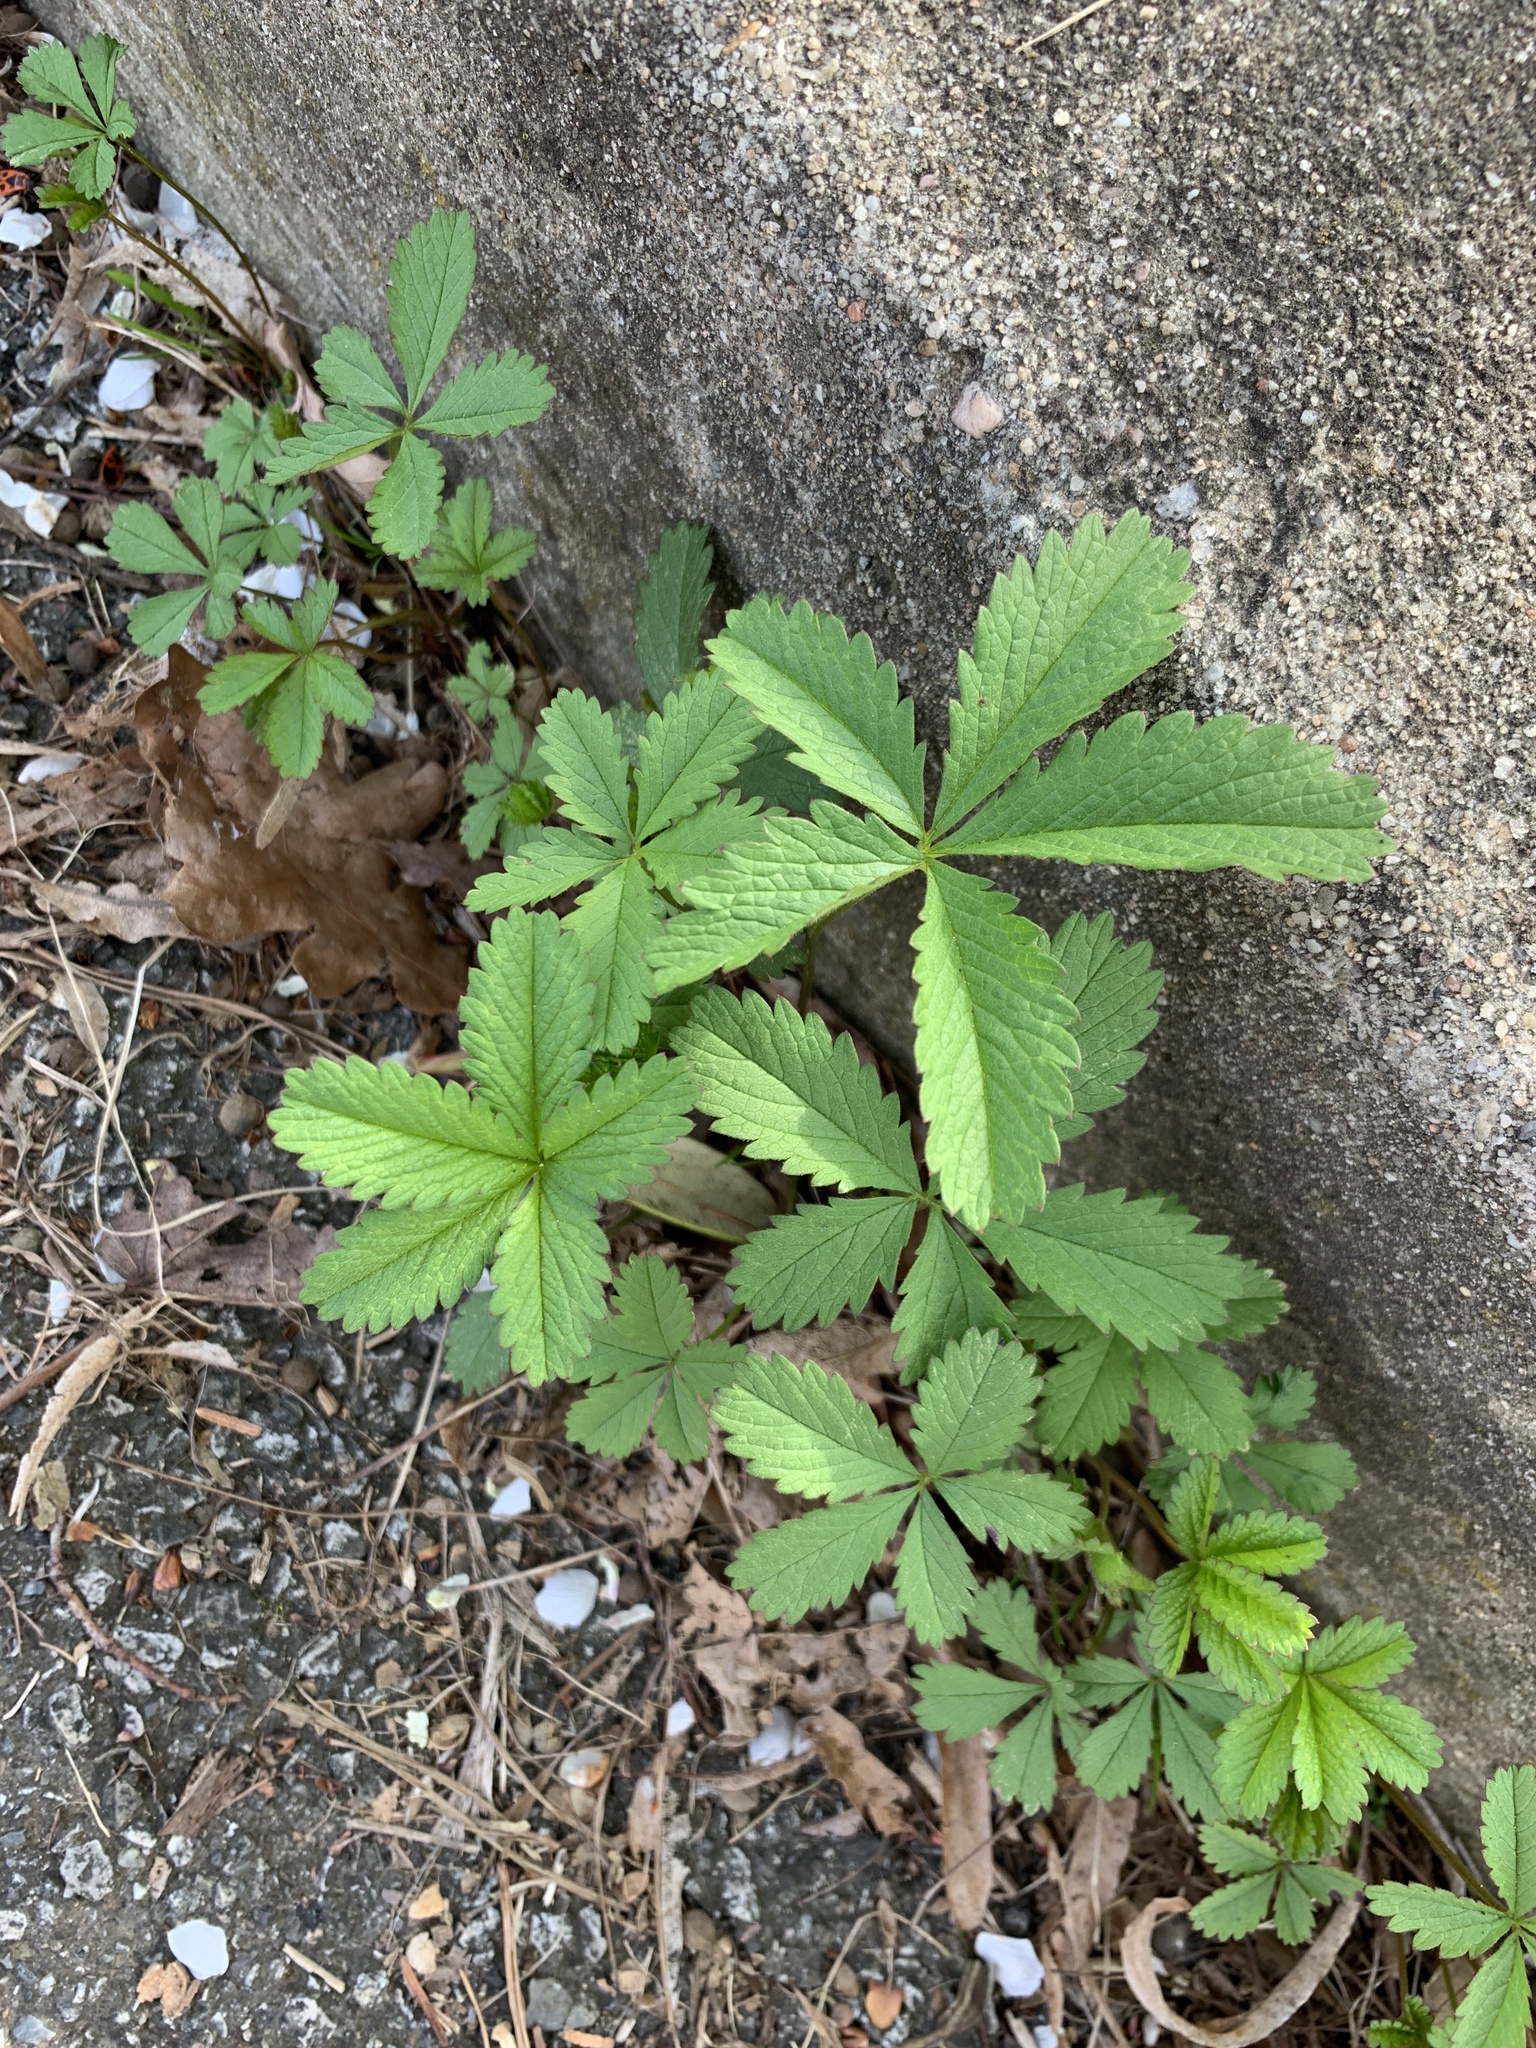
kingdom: Plantae
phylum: Tracheophyta
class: Magnoliopsida
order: Rosales
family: Rosaceae
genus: Potentilla
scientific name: Potentilla reptans
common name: Creeping cinquefoil
